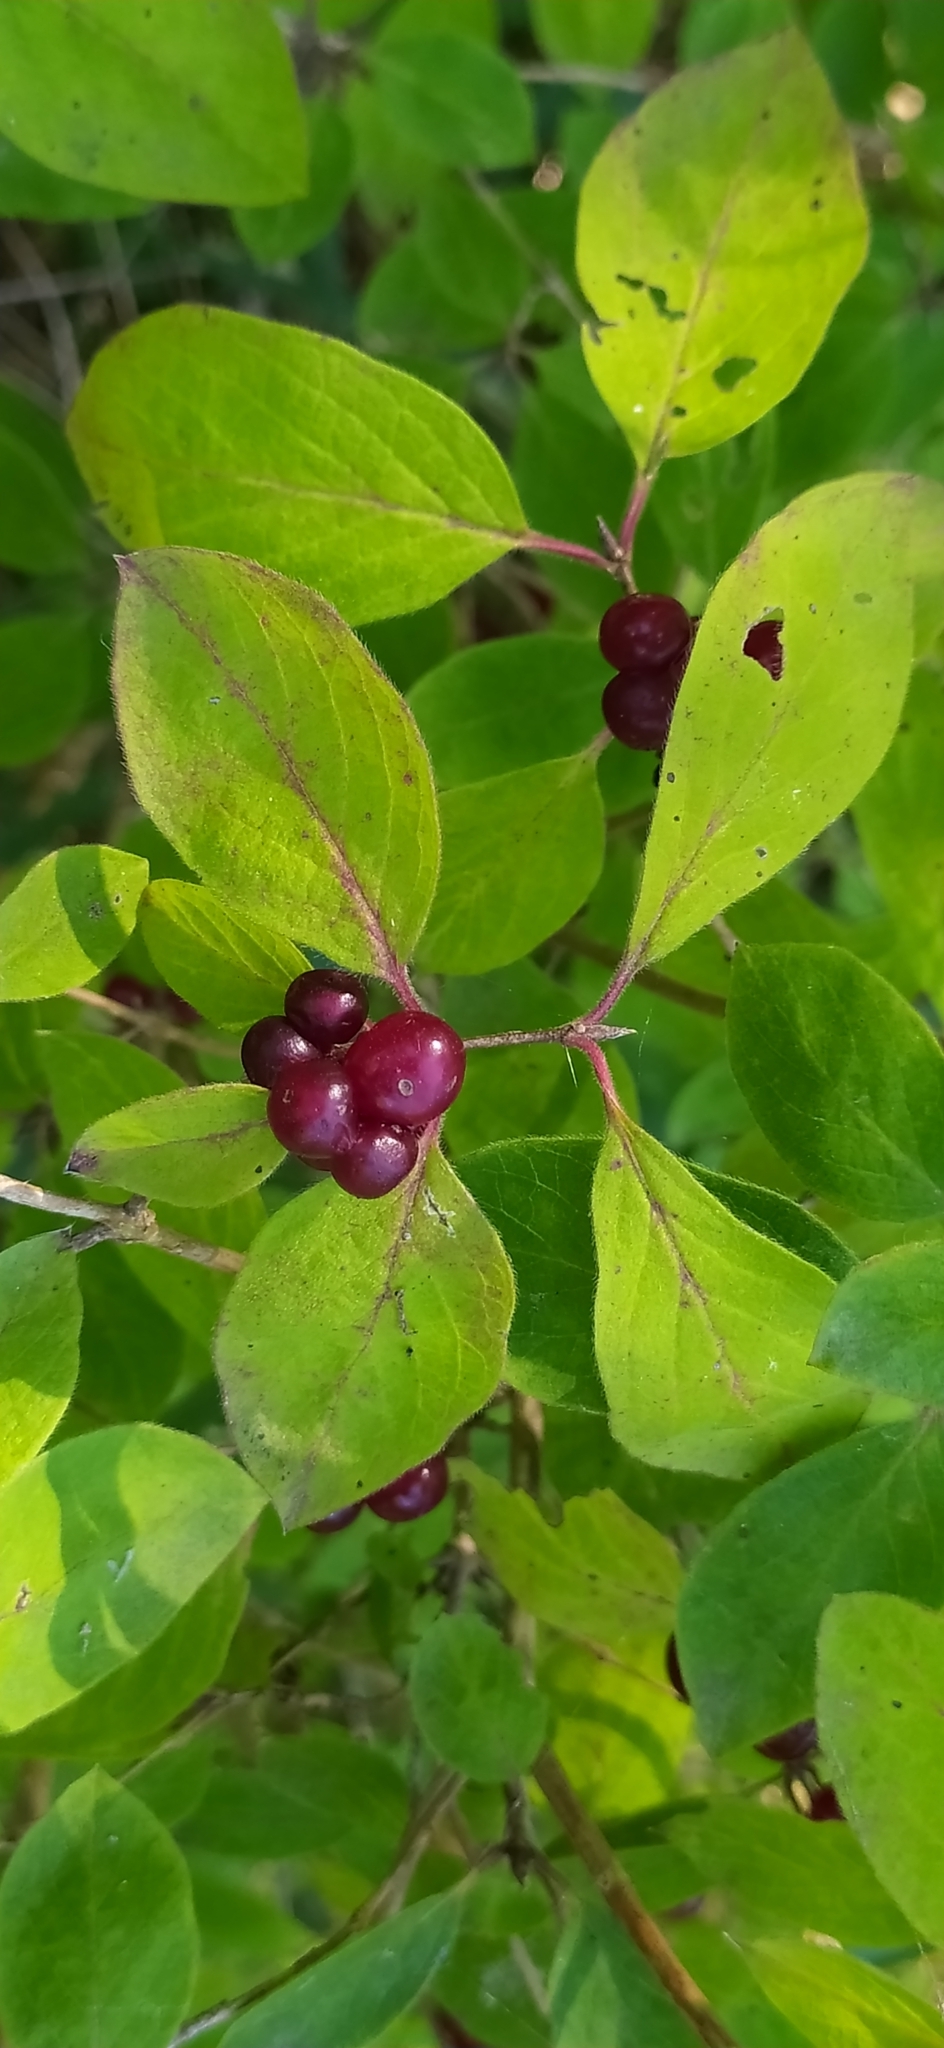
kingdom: Plantae
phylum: Tracheophyta
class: Magnoliopsida
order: Dipsacales
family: Caprifoliaceae
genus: Lonicera
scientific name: Lonicera xylosteum
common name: Fly honeysuckle
